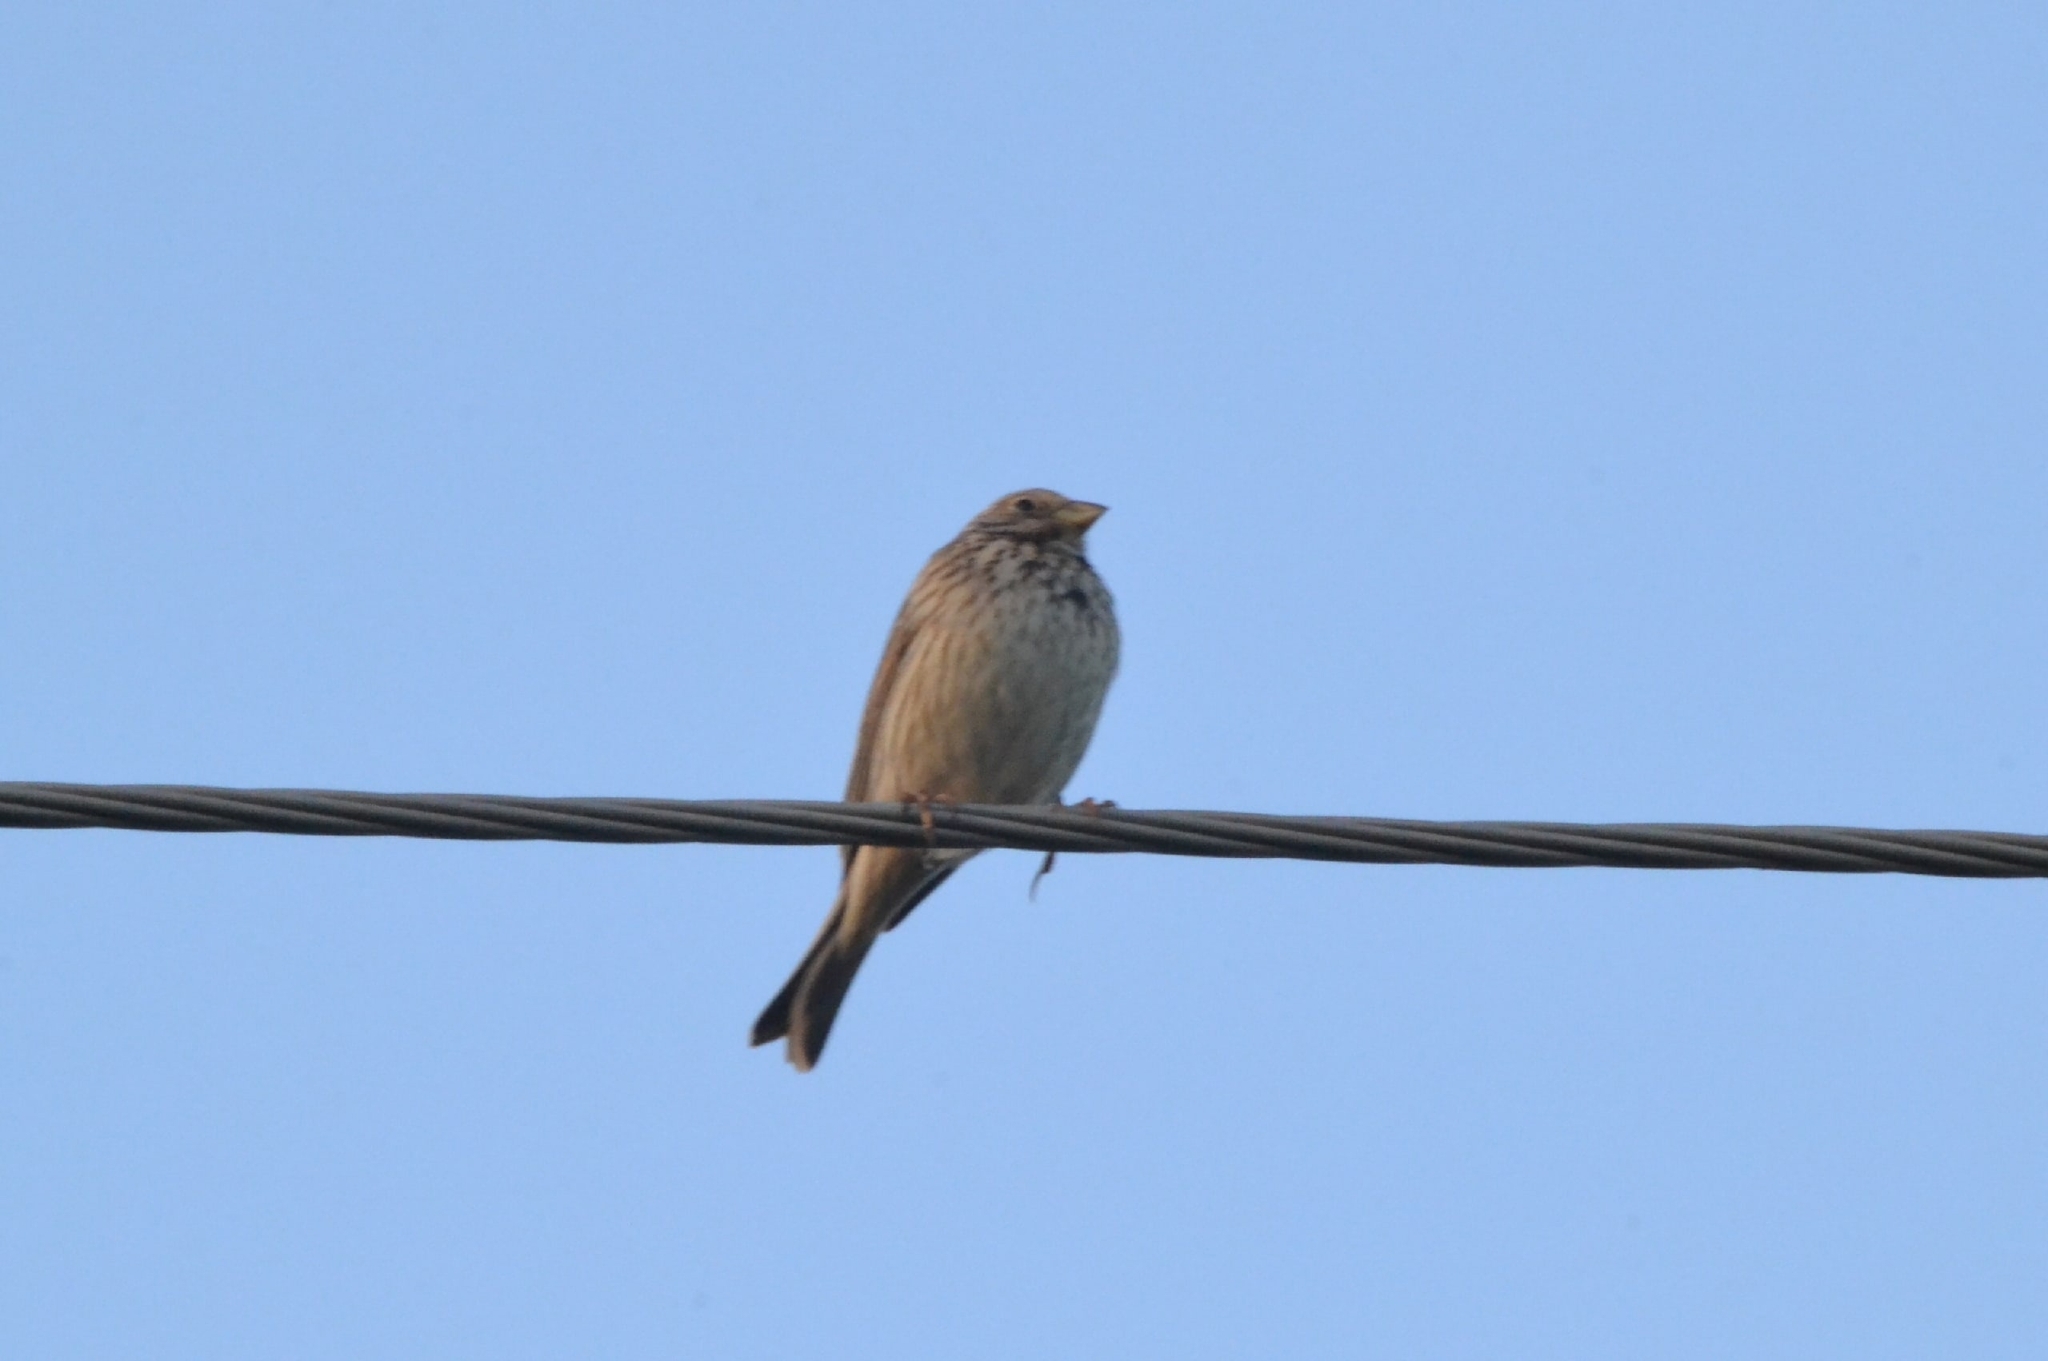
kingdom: Animalia
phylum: Chordata
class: Aves
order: Passeriformes
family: Emberizidae
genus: Emberiza
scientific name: Emberiza calandra
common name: Corn bunting
